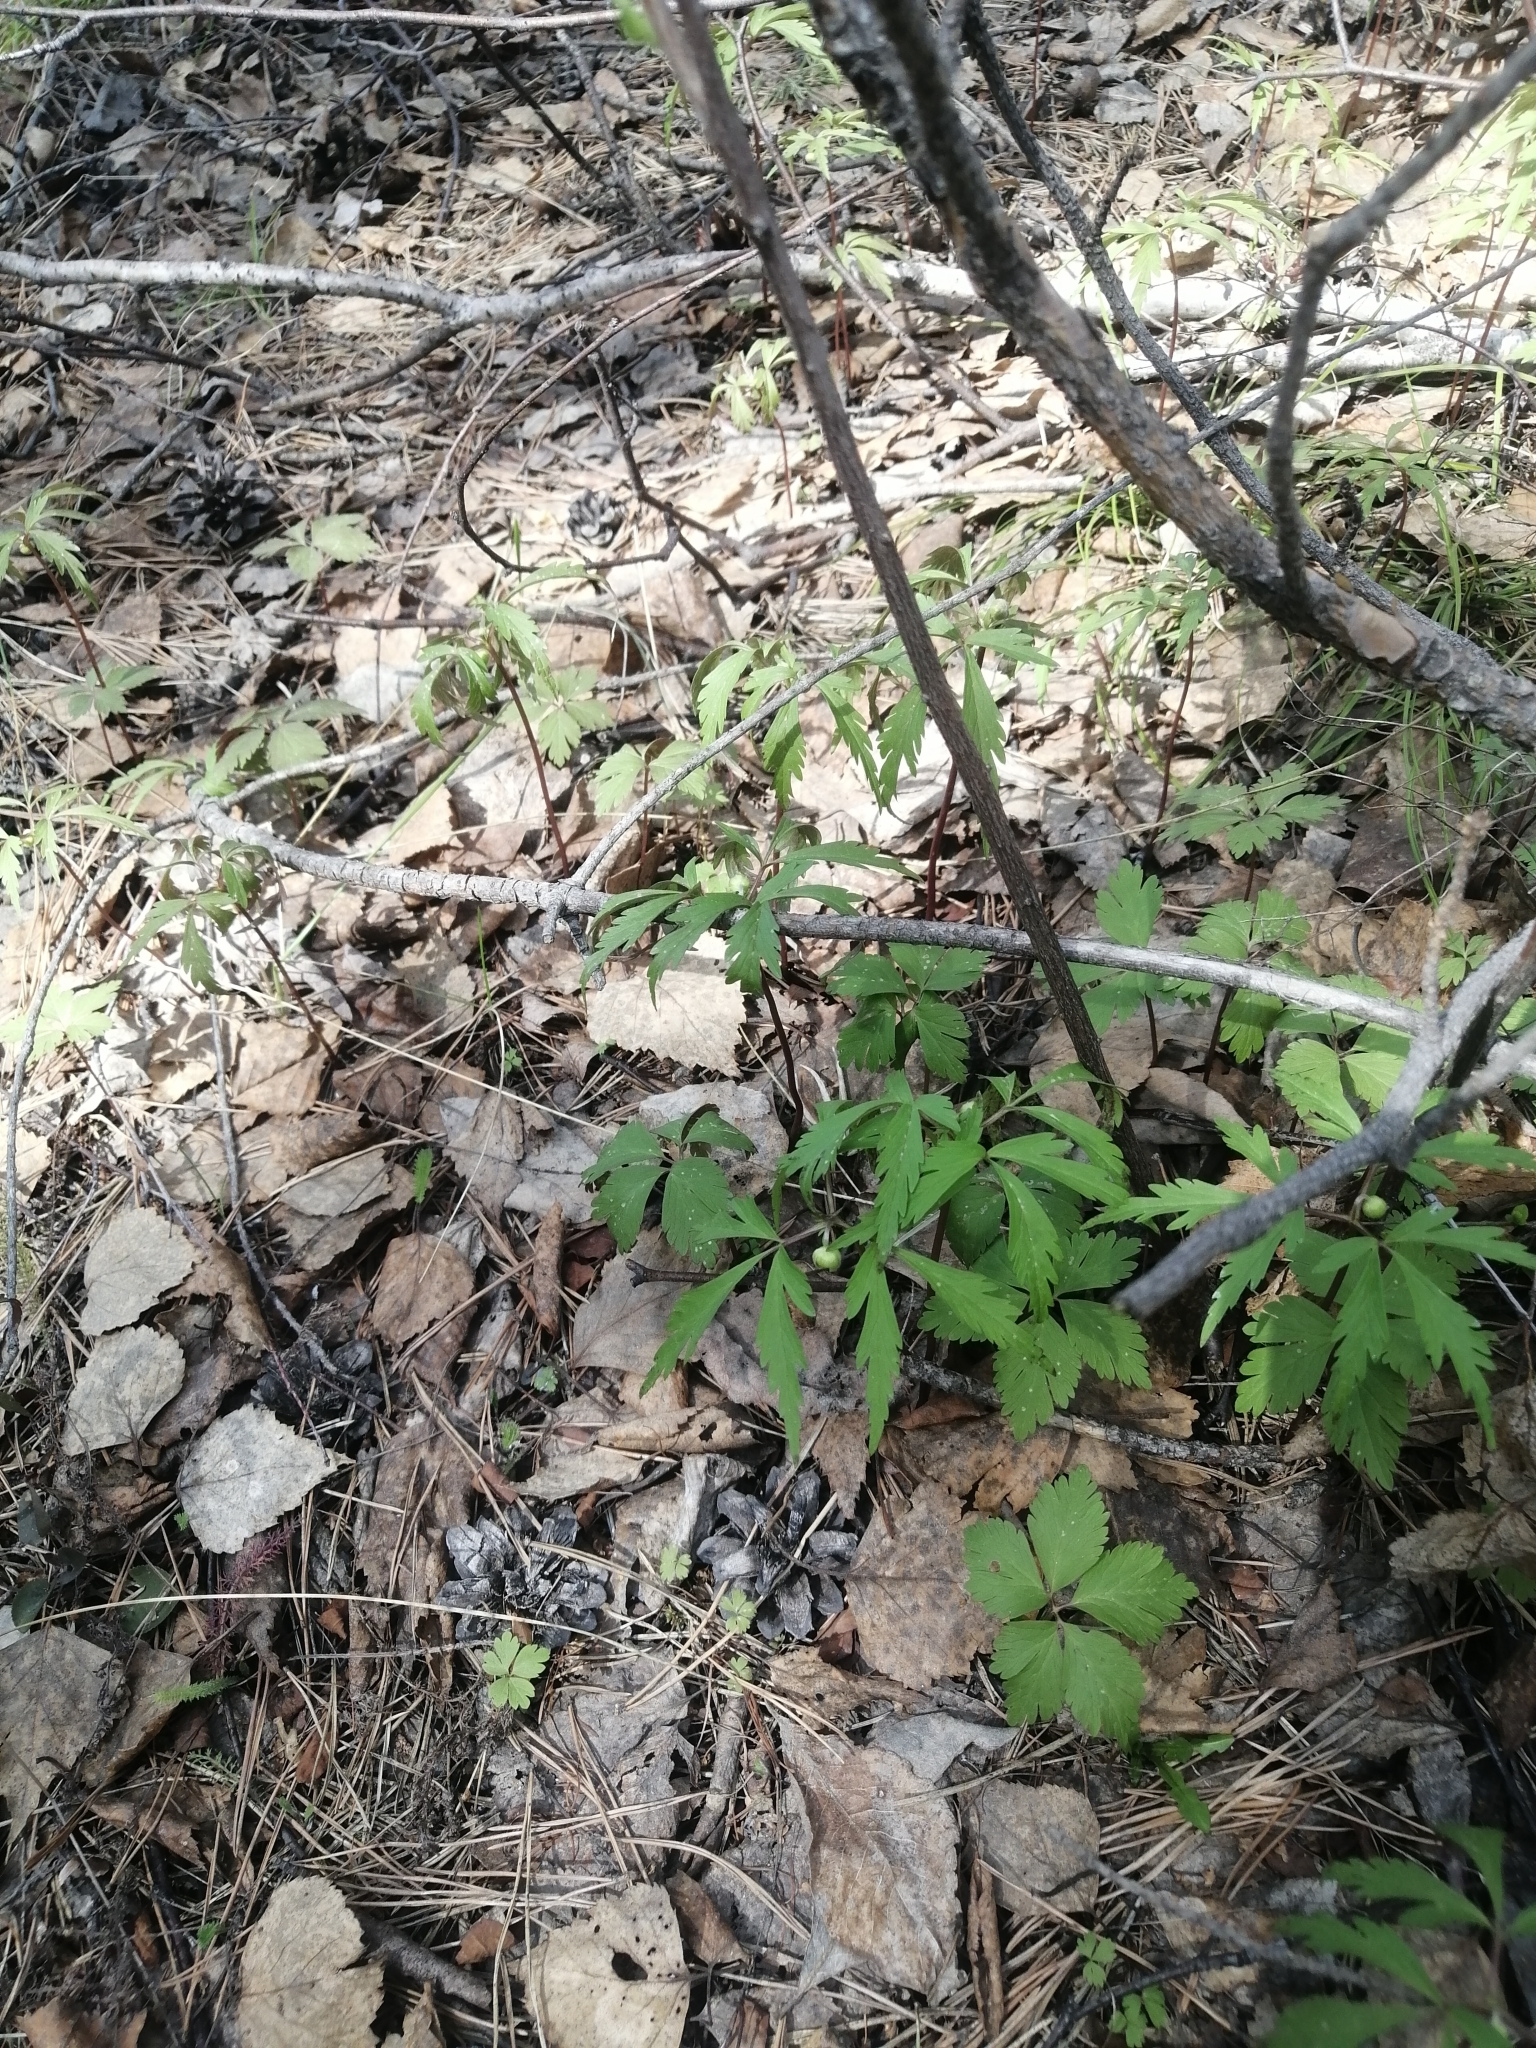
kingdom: Plantae
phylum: Tracheophyta
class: Magnoliopsida
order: Ranunculales
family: Ranunculaceae
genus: Anemone
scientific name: Anemone reflexa
